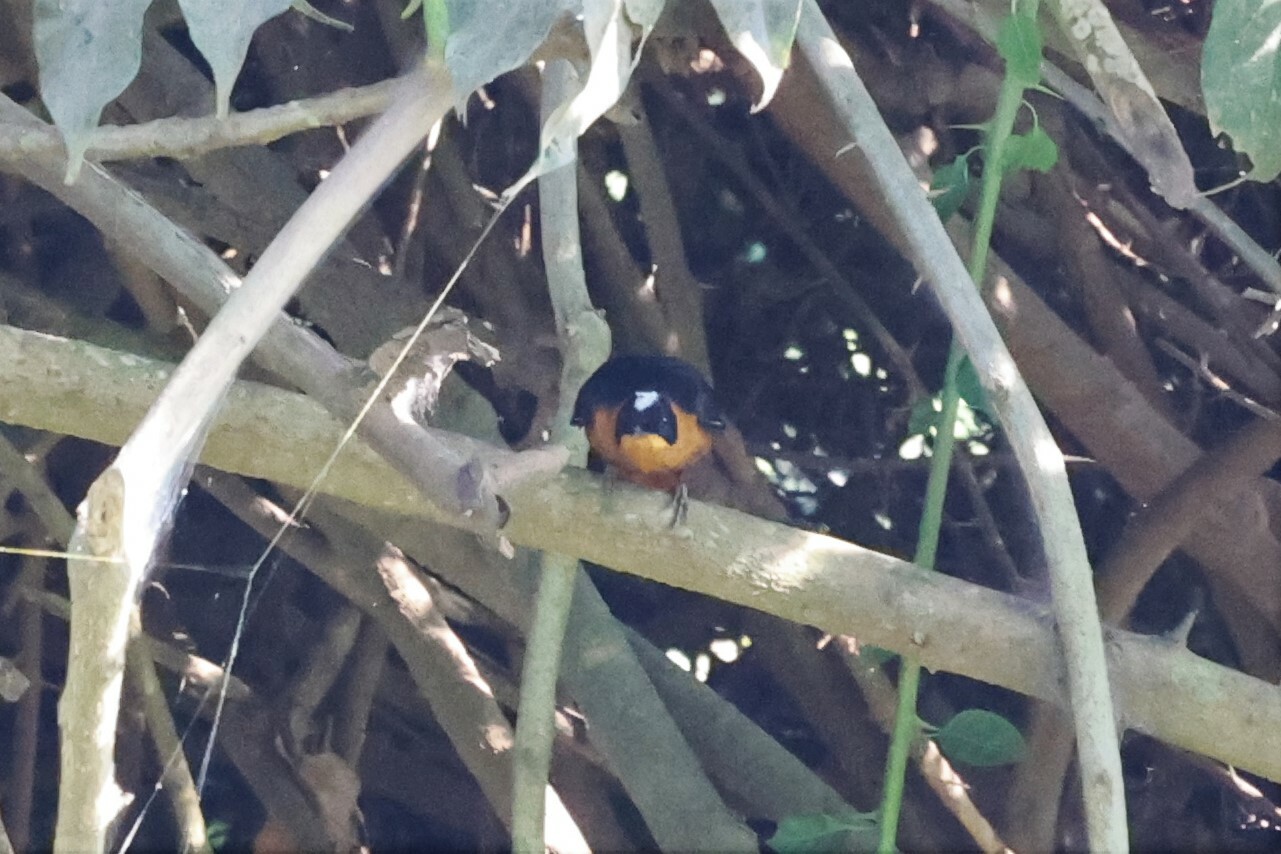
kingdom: Animalia
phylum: Chordata
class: Aves
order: Passeriformes
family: Muscicapidae
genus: Cossypha
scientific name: Cossypha niveicapilla
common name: Snowy-crowned robin-chat
